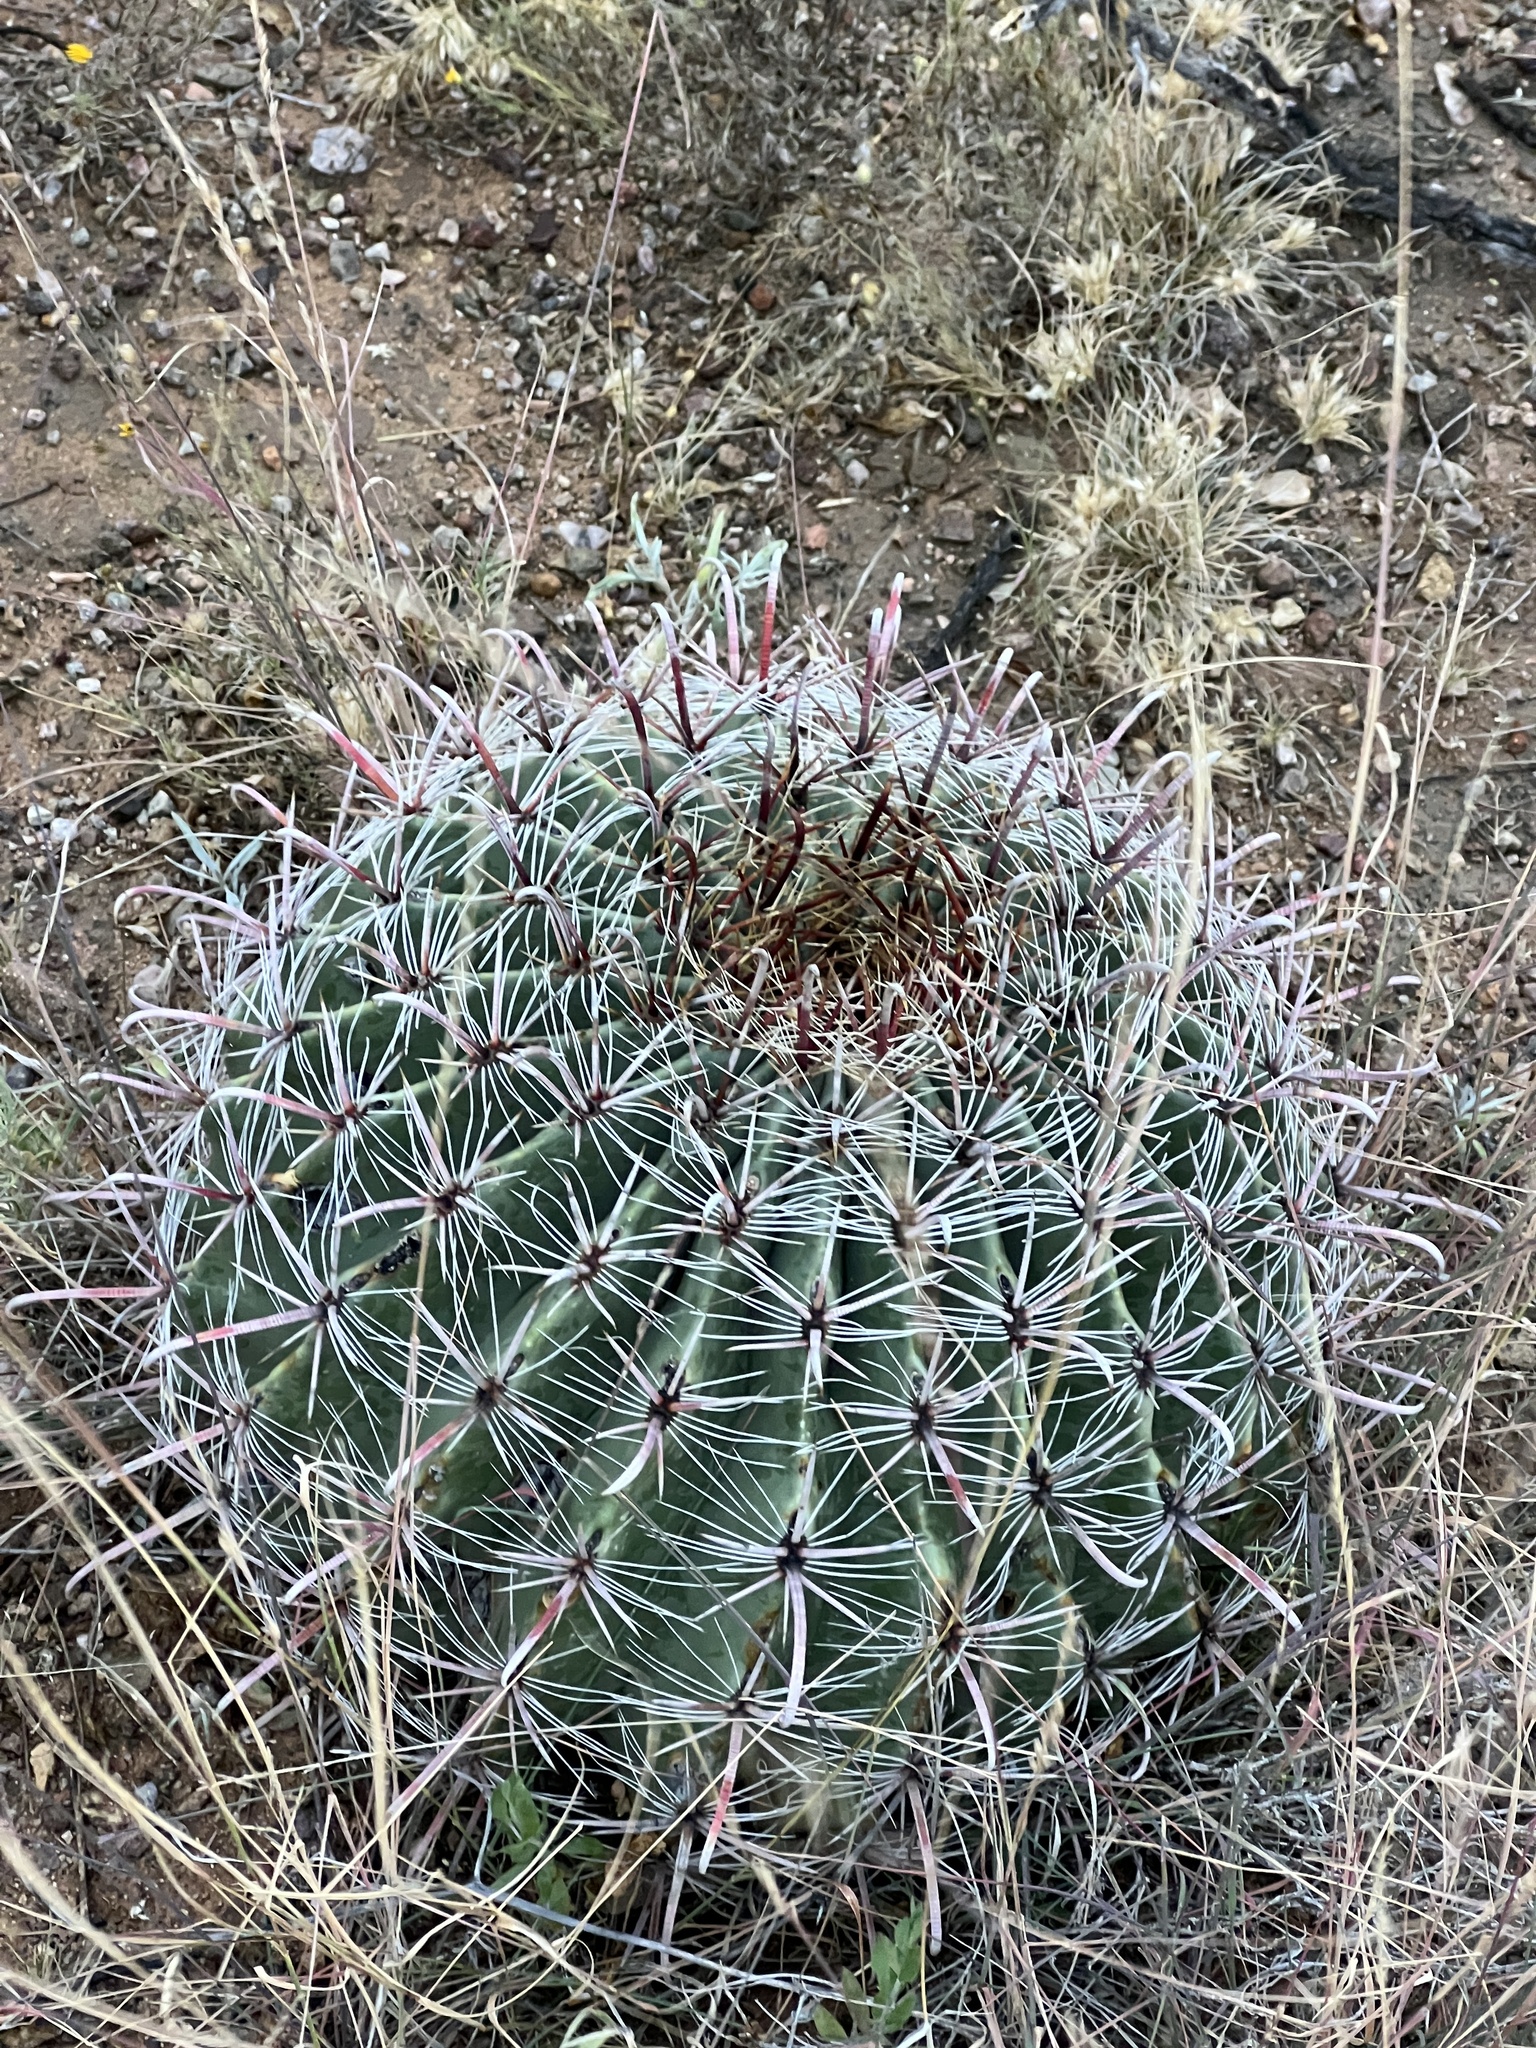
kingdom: Plantae
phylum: Tracheophyta
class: Magnoliopsida
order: Caryophyllales
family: Cactaceae
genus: Ferocactus
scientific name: Ferocactus wislizeni
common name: Candy barrel cactus
